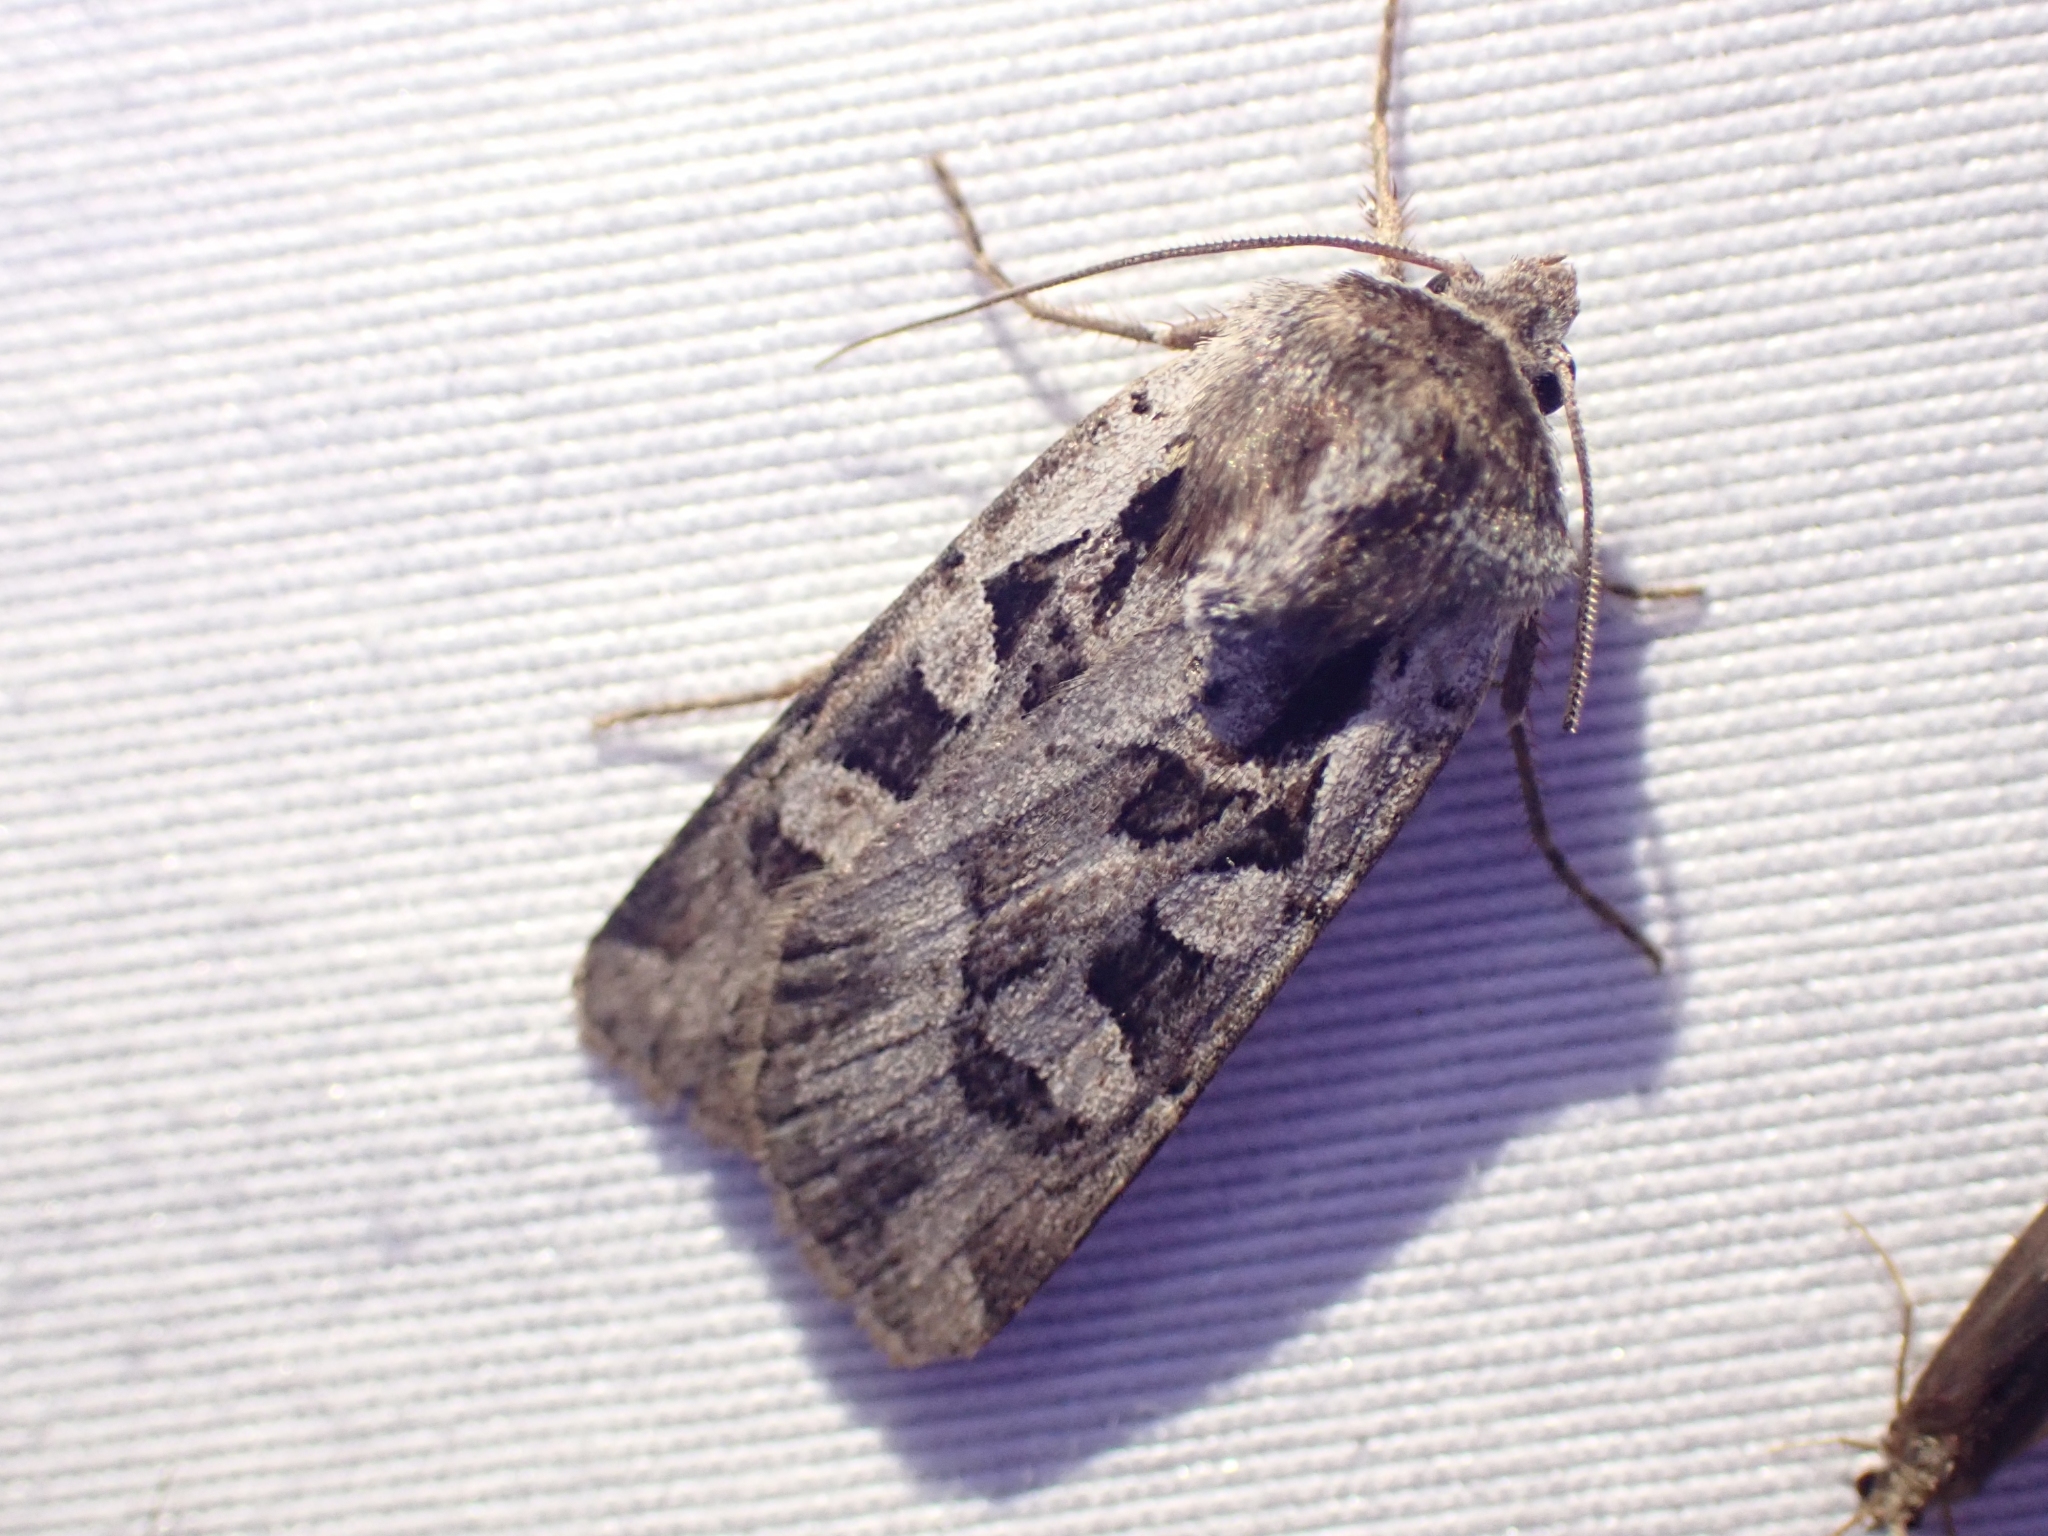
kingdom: Animalia
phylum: Arthropoda
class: Insecta
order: Lepidoptera
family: Noctuidae
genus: Euxoa
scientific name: Euxoa auripennis
